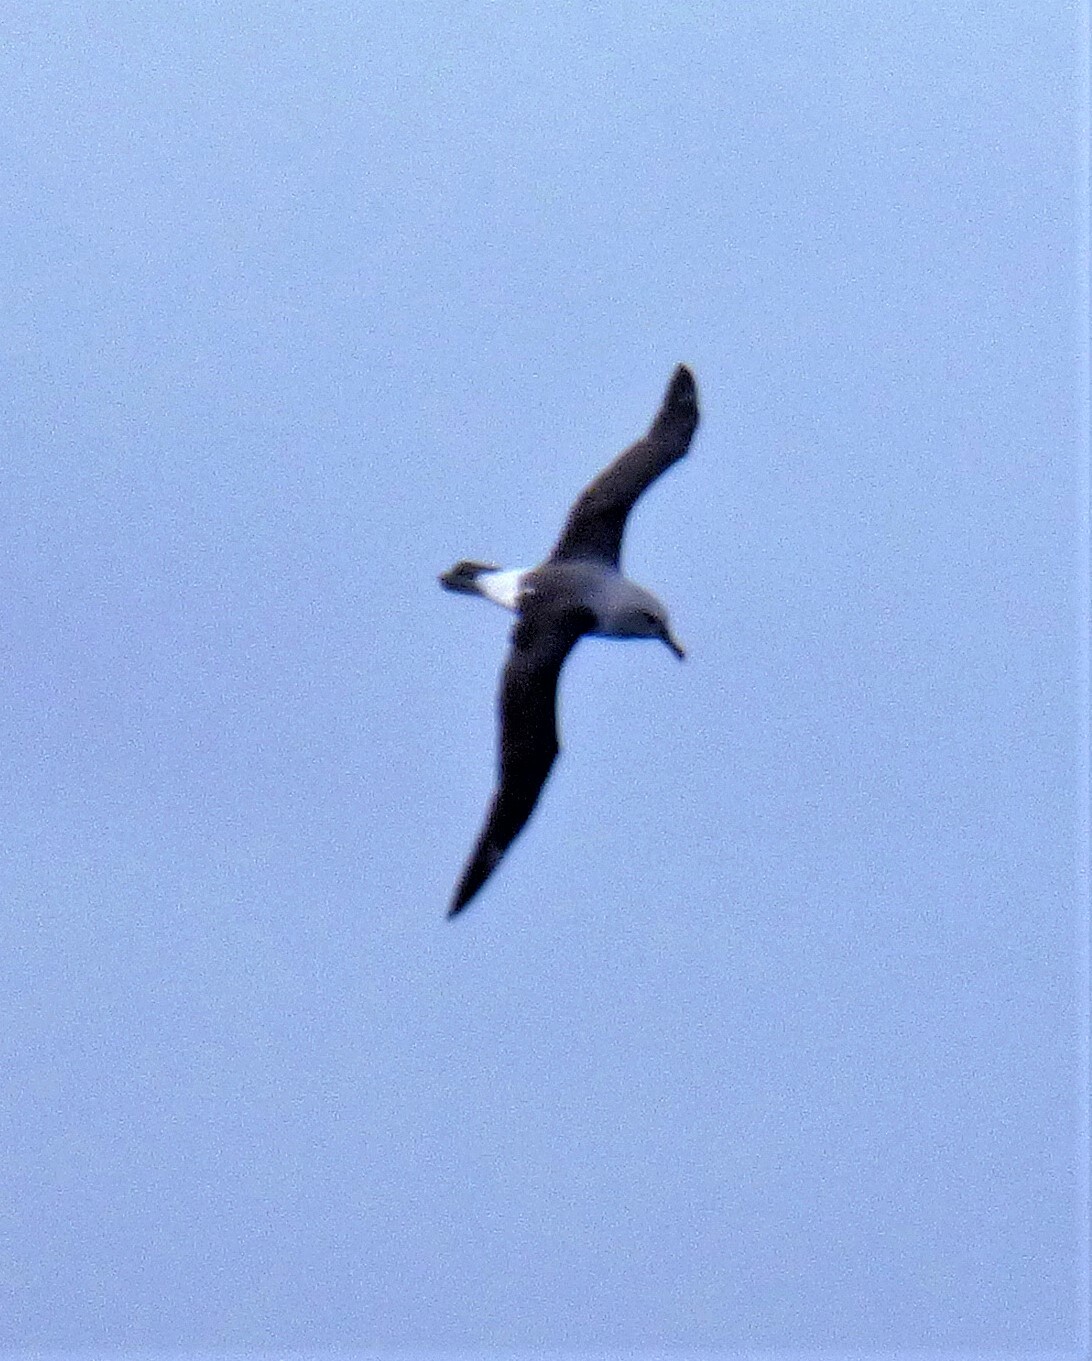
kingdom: Animalia
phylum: Chordata
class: Aves
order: Procellariiformes
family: Diomedeidae
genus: Thalassarche
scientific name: Thalassarche chrysostoma
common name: Grey-headed albatross
